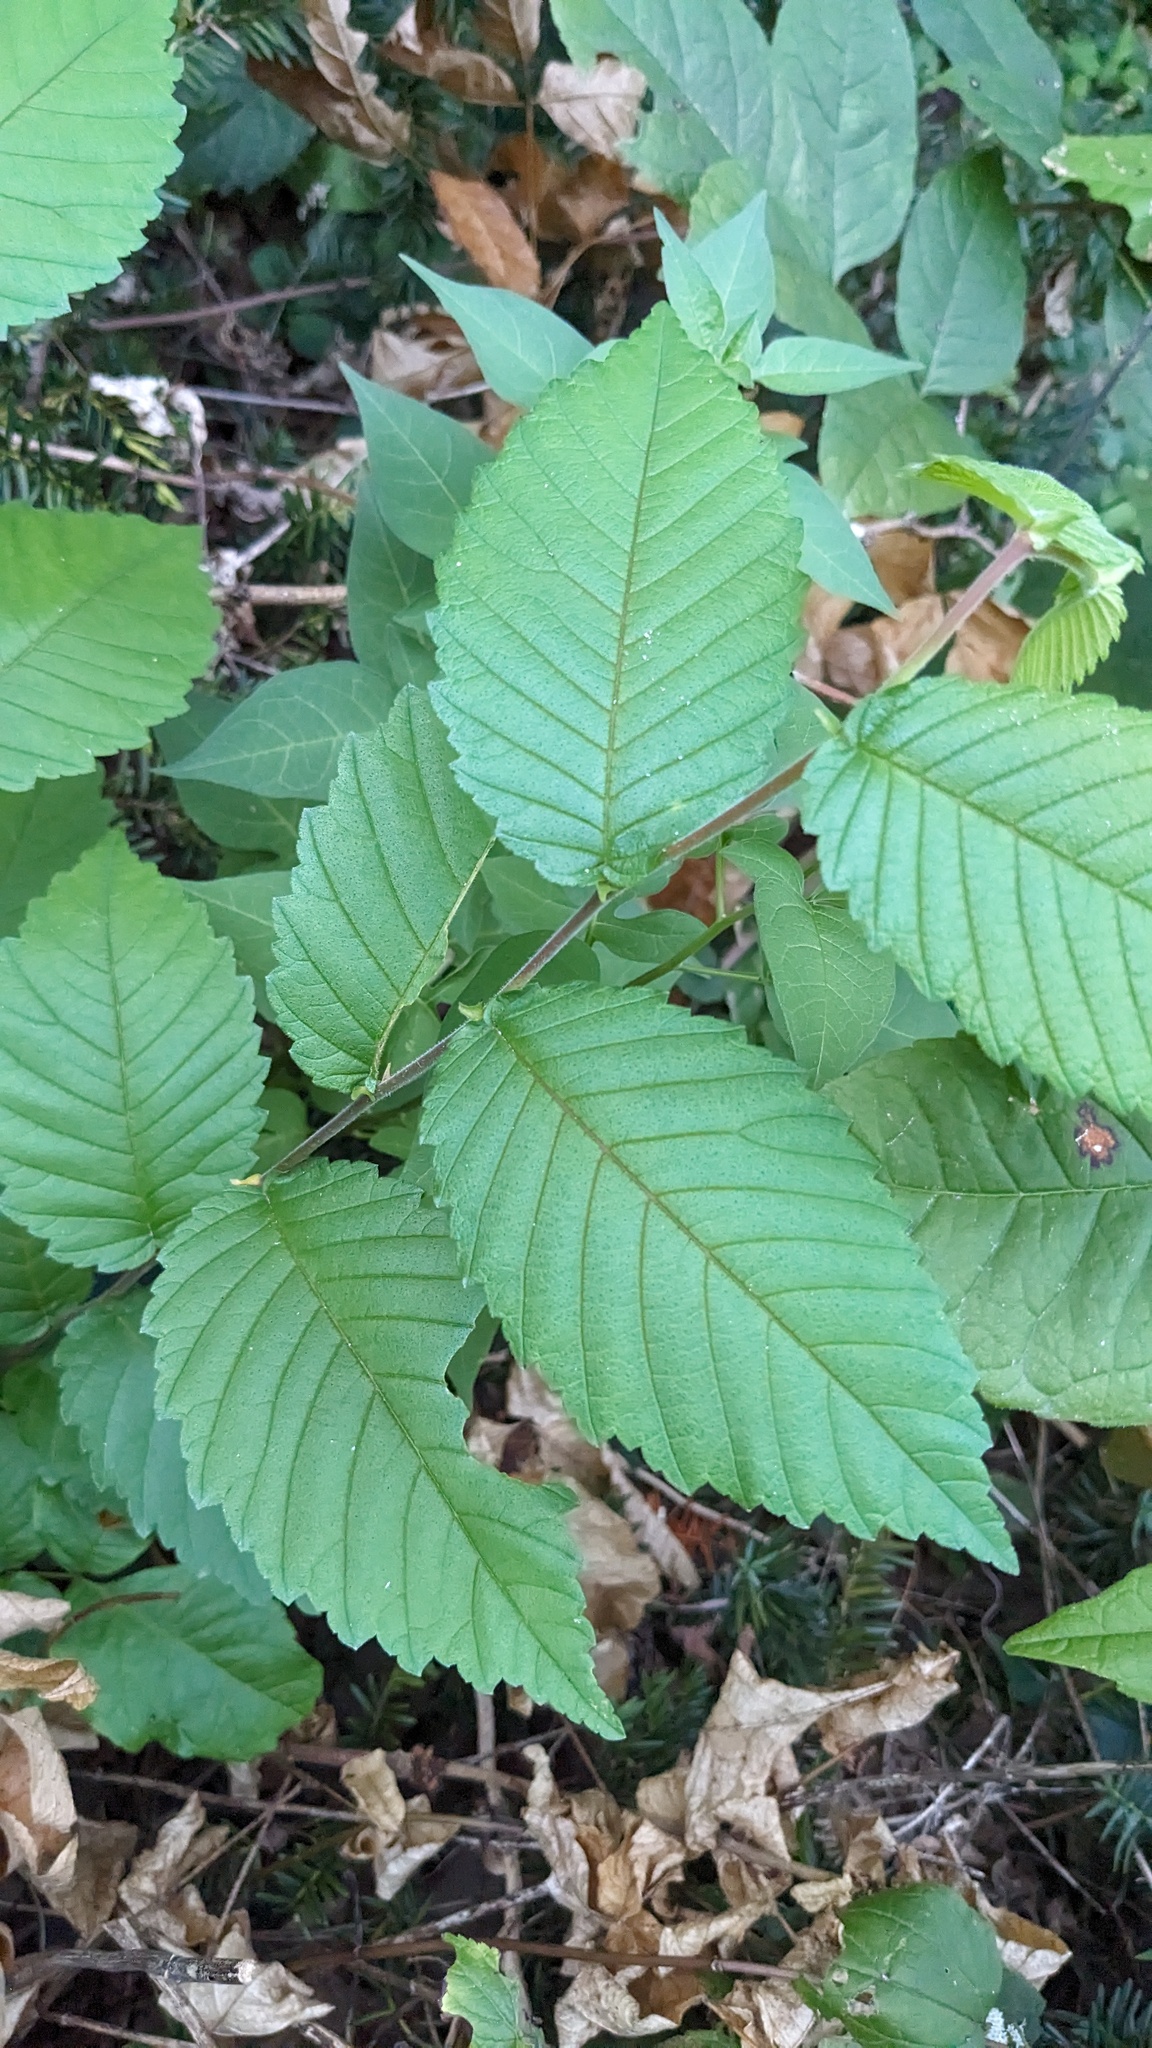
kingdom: Plantae
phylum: Tracheophyta
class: Magnoliopsida
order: Rosales
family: Ulmaceae
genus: Ulmus
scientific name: Ulmus pumila
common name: Siberian elm
